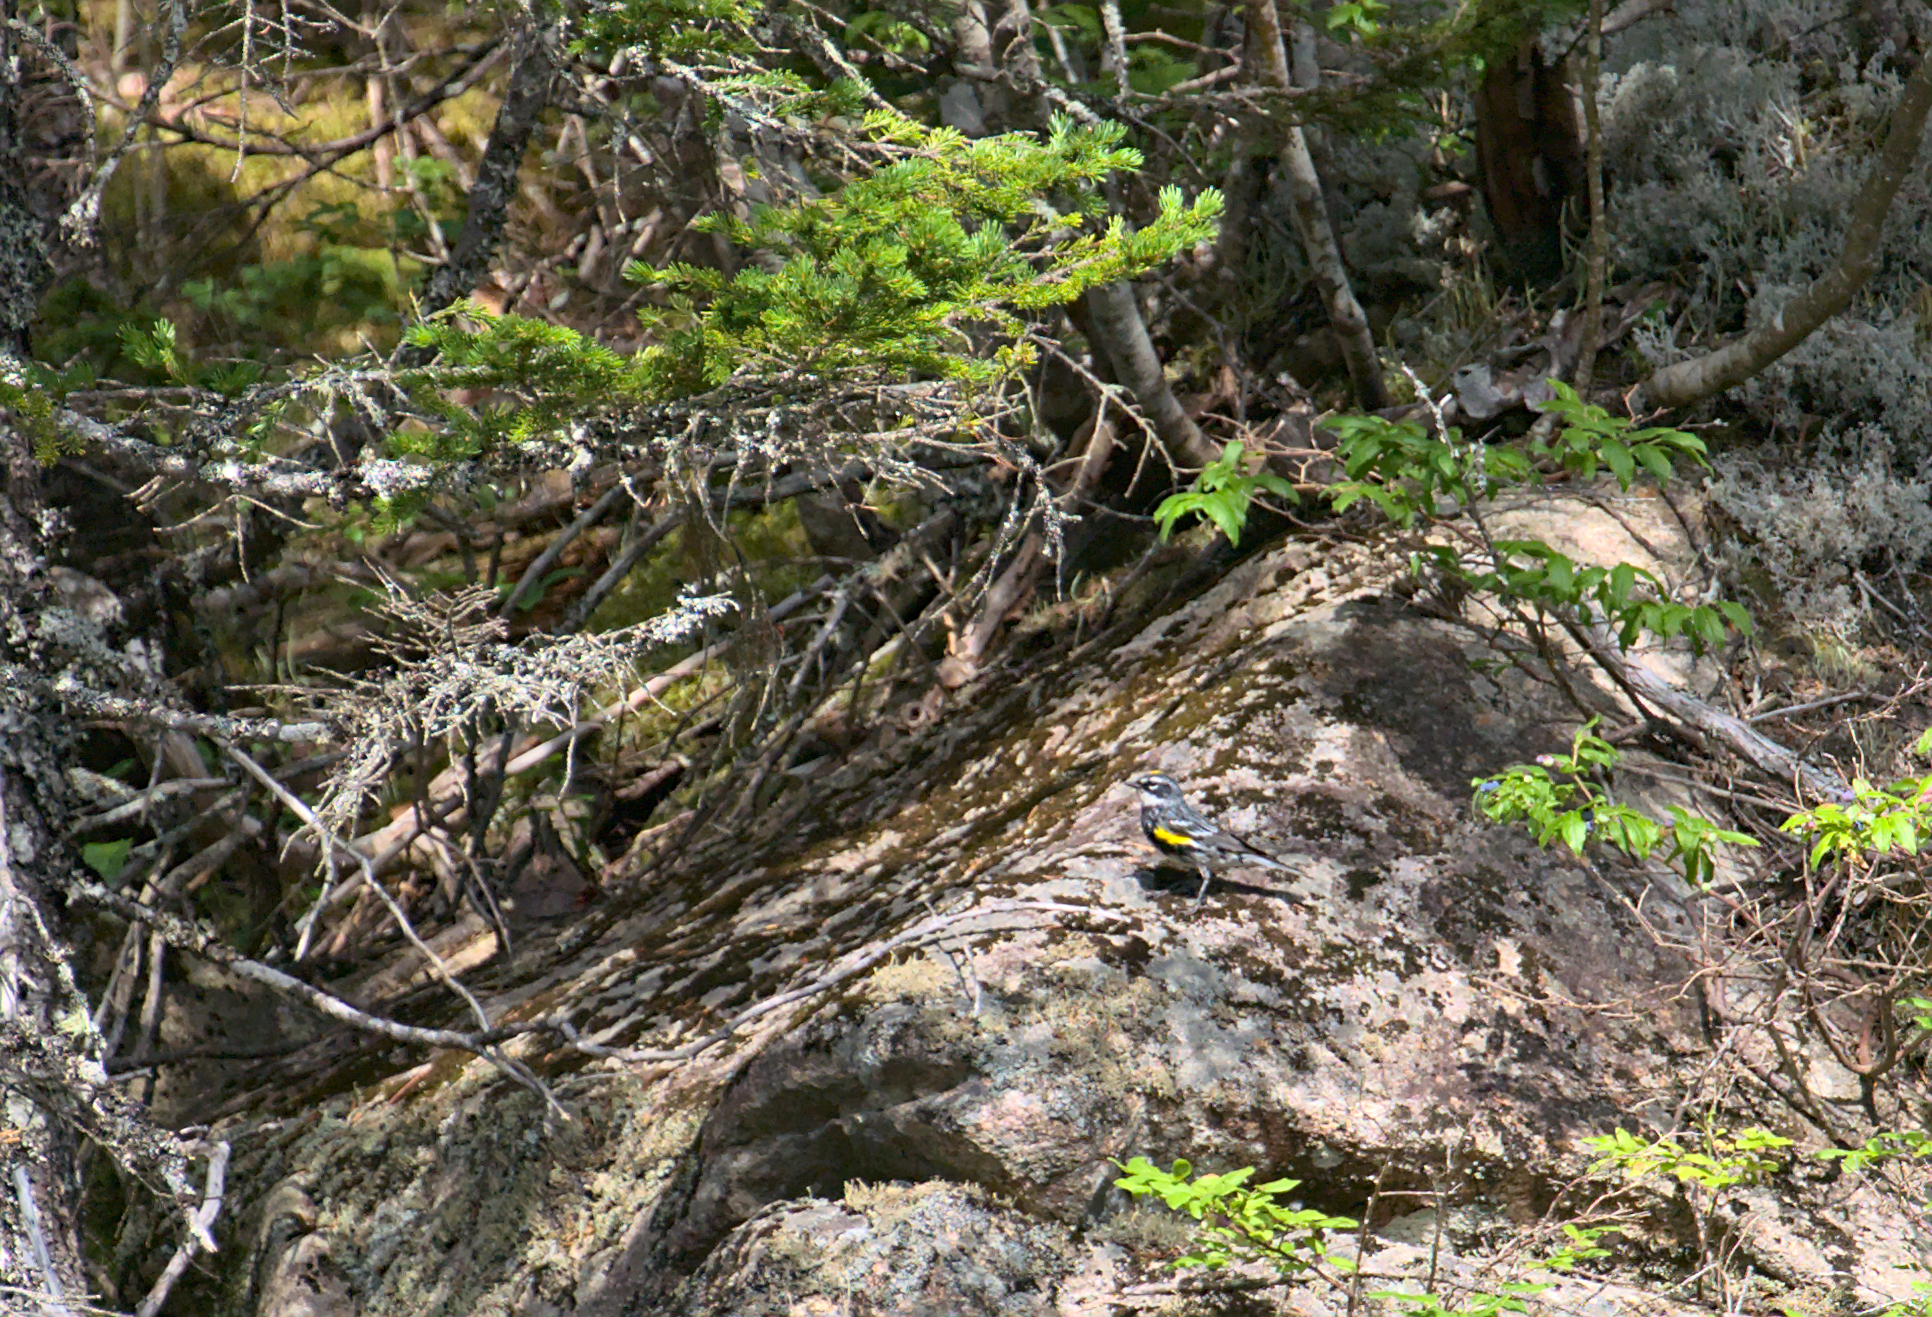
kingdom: Animalia
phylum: Chordata
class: Aves
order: Passeriformes
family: Parulidae
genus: Setophaga
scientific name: Setophaga coronata
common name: Myrtle warbler
